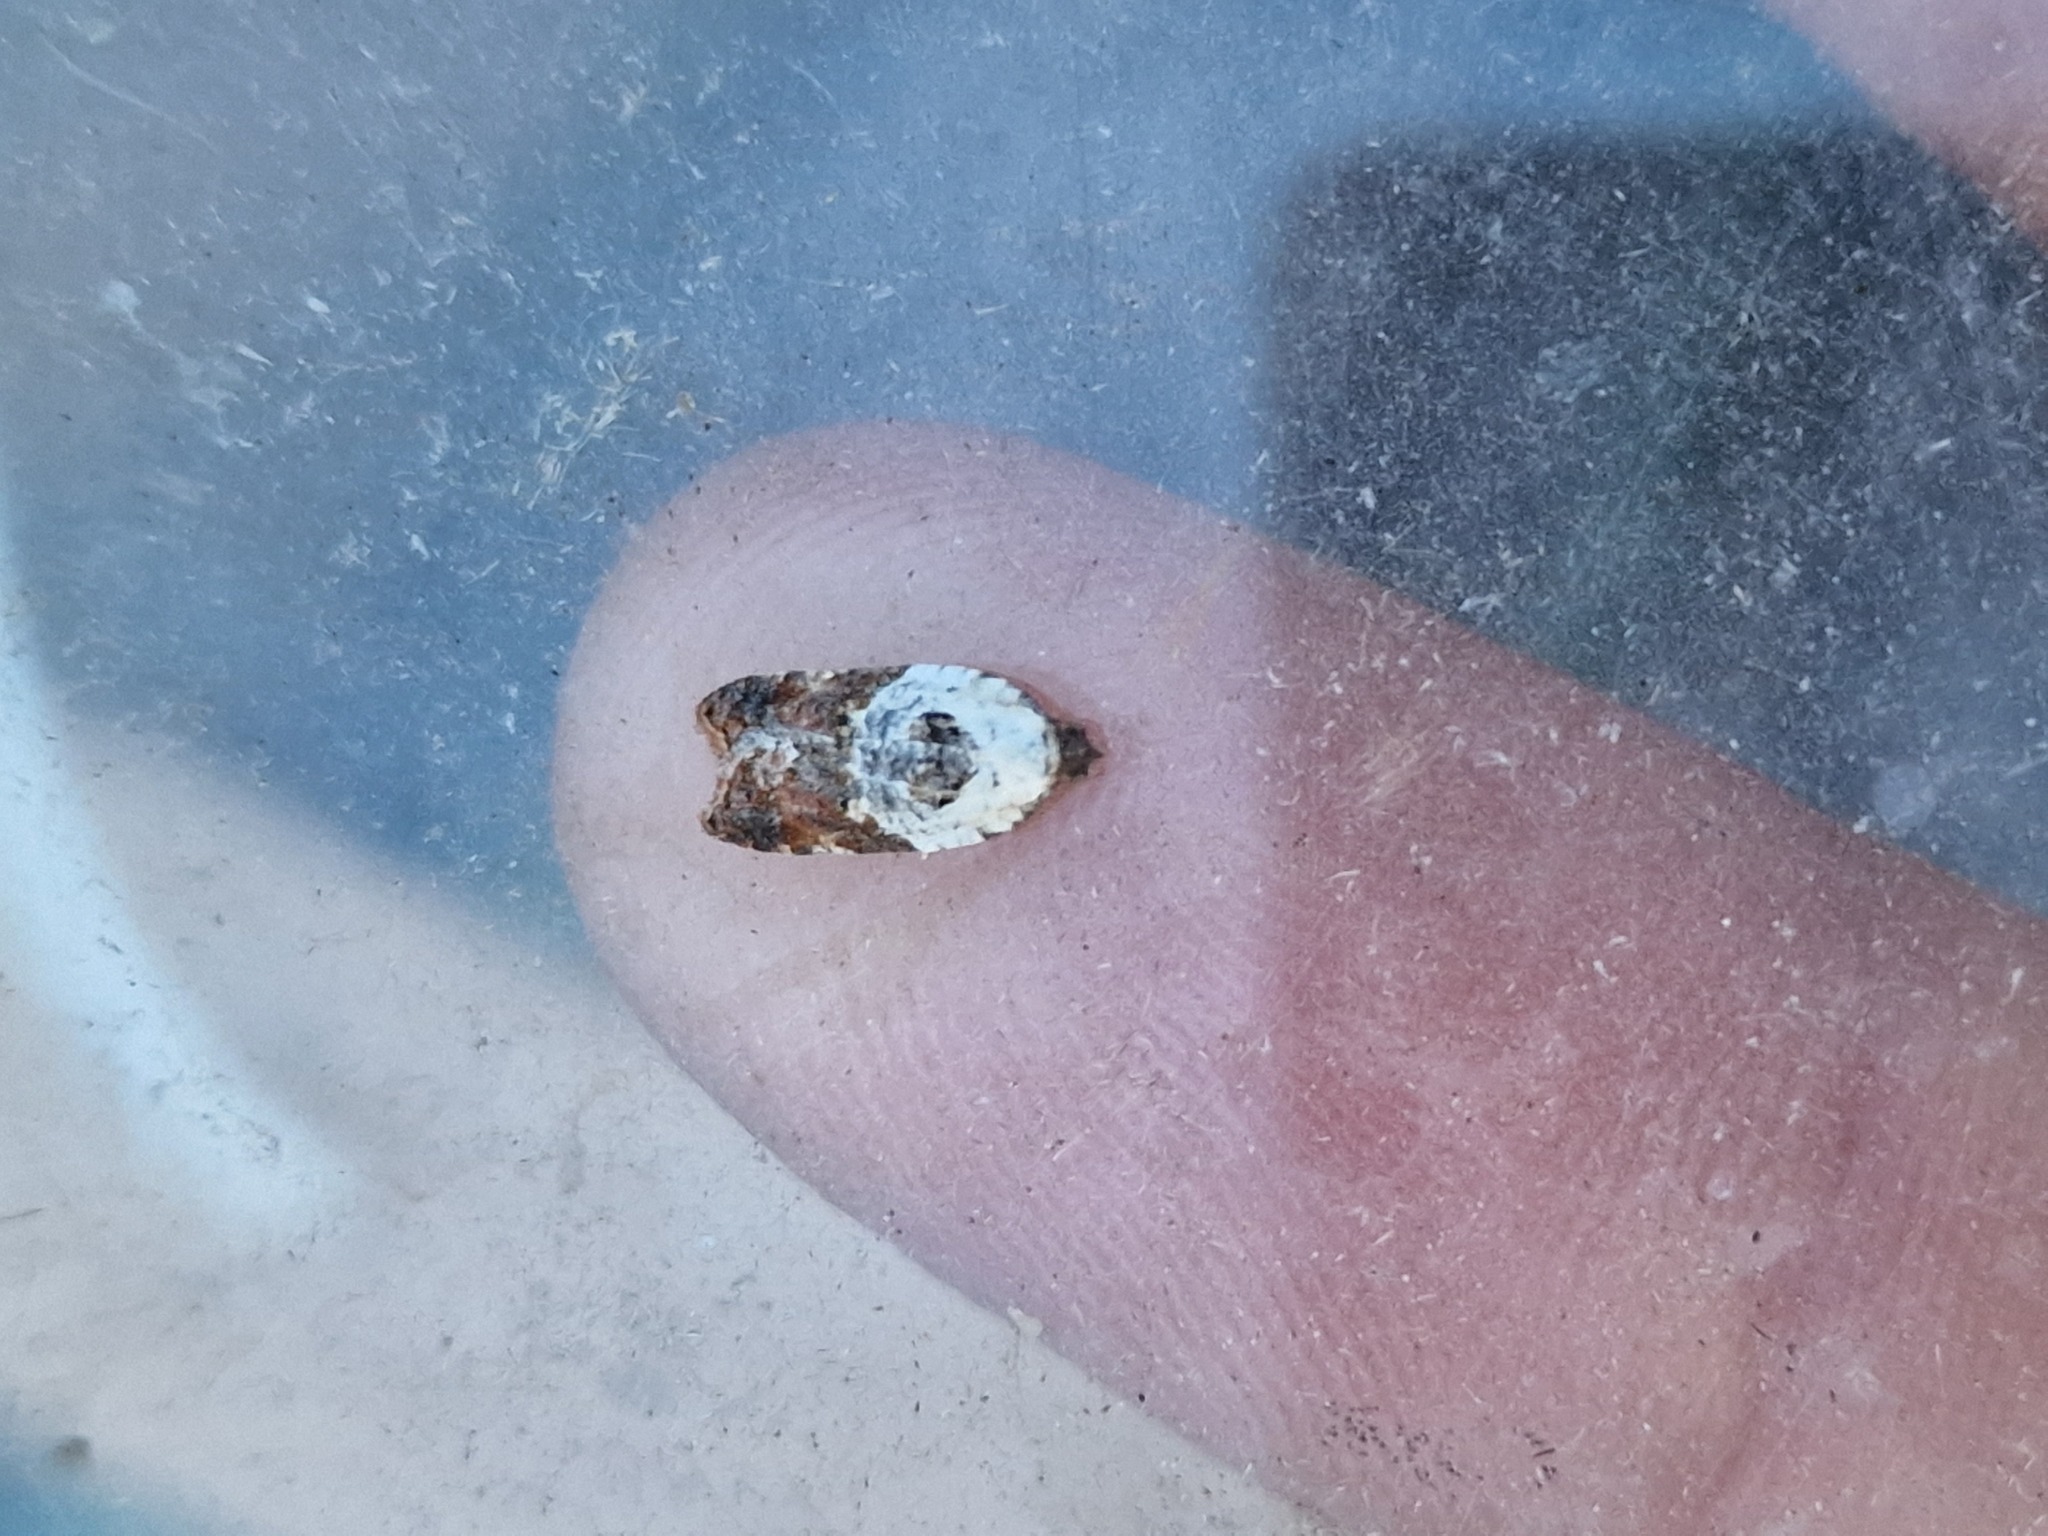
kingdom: Animalia
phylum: Arthropoda
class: Insecta
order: Lepidoptera
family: Tortricidae
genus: Acleris
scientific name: Acleris variegana
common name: Garden rose tortrix
